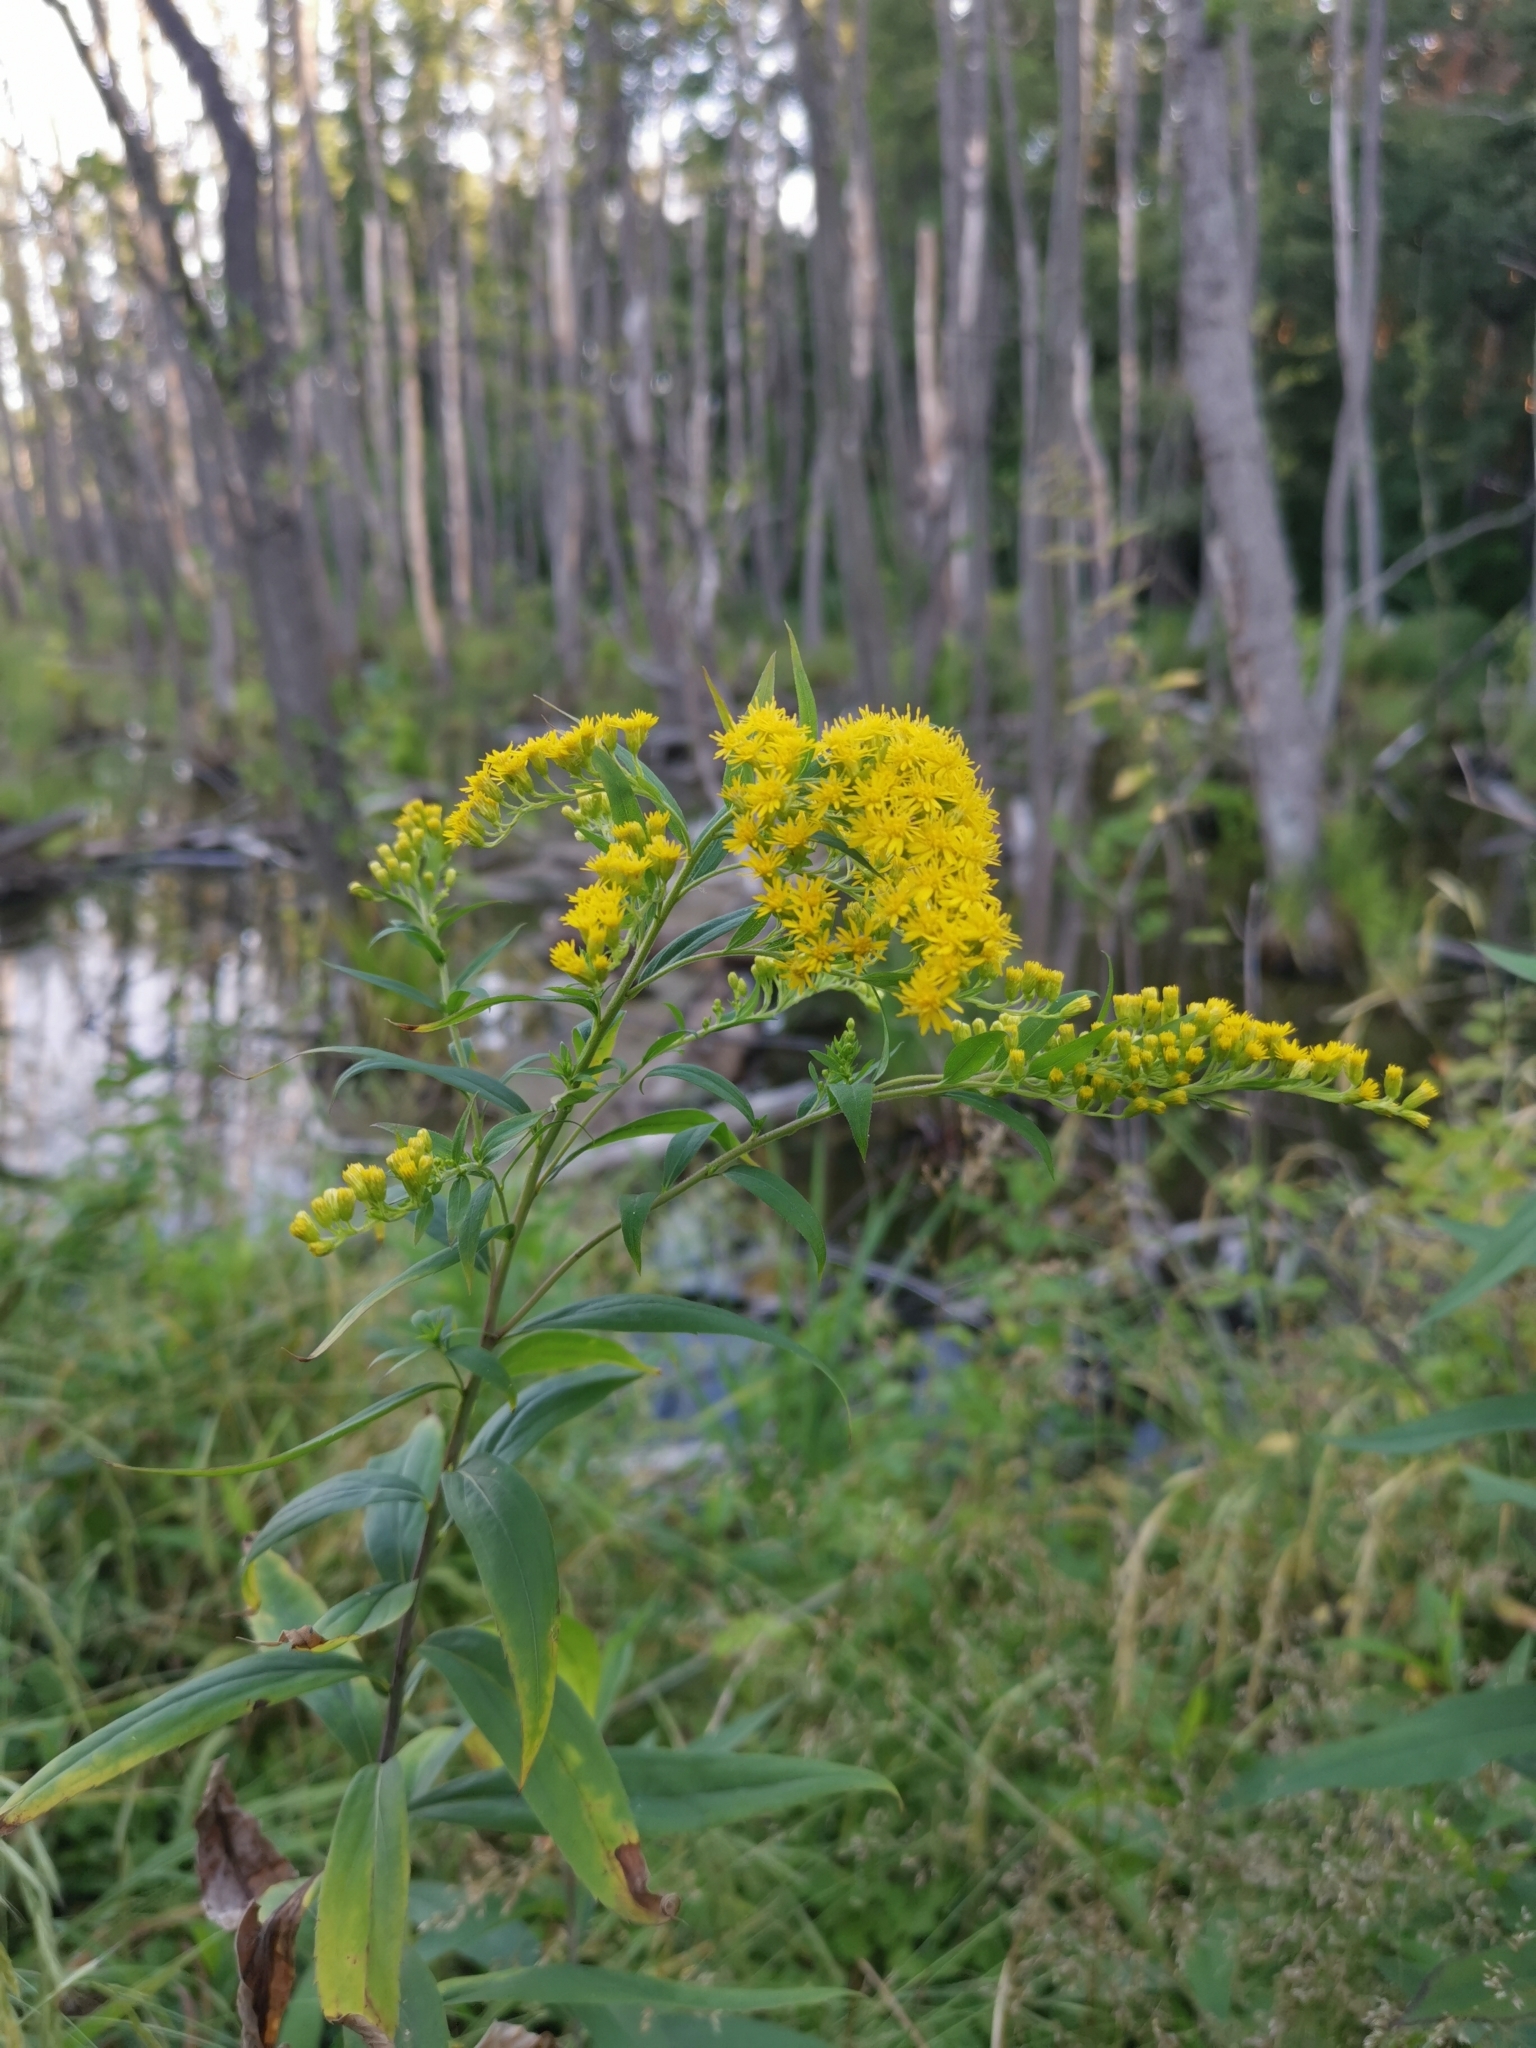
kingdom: Plantae
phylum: Tracheophyta
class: Magnoliopsida
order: Asterales
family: Asteraceae
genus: Solidago
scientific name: Solidago gigantea
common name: Giant goldenrod
